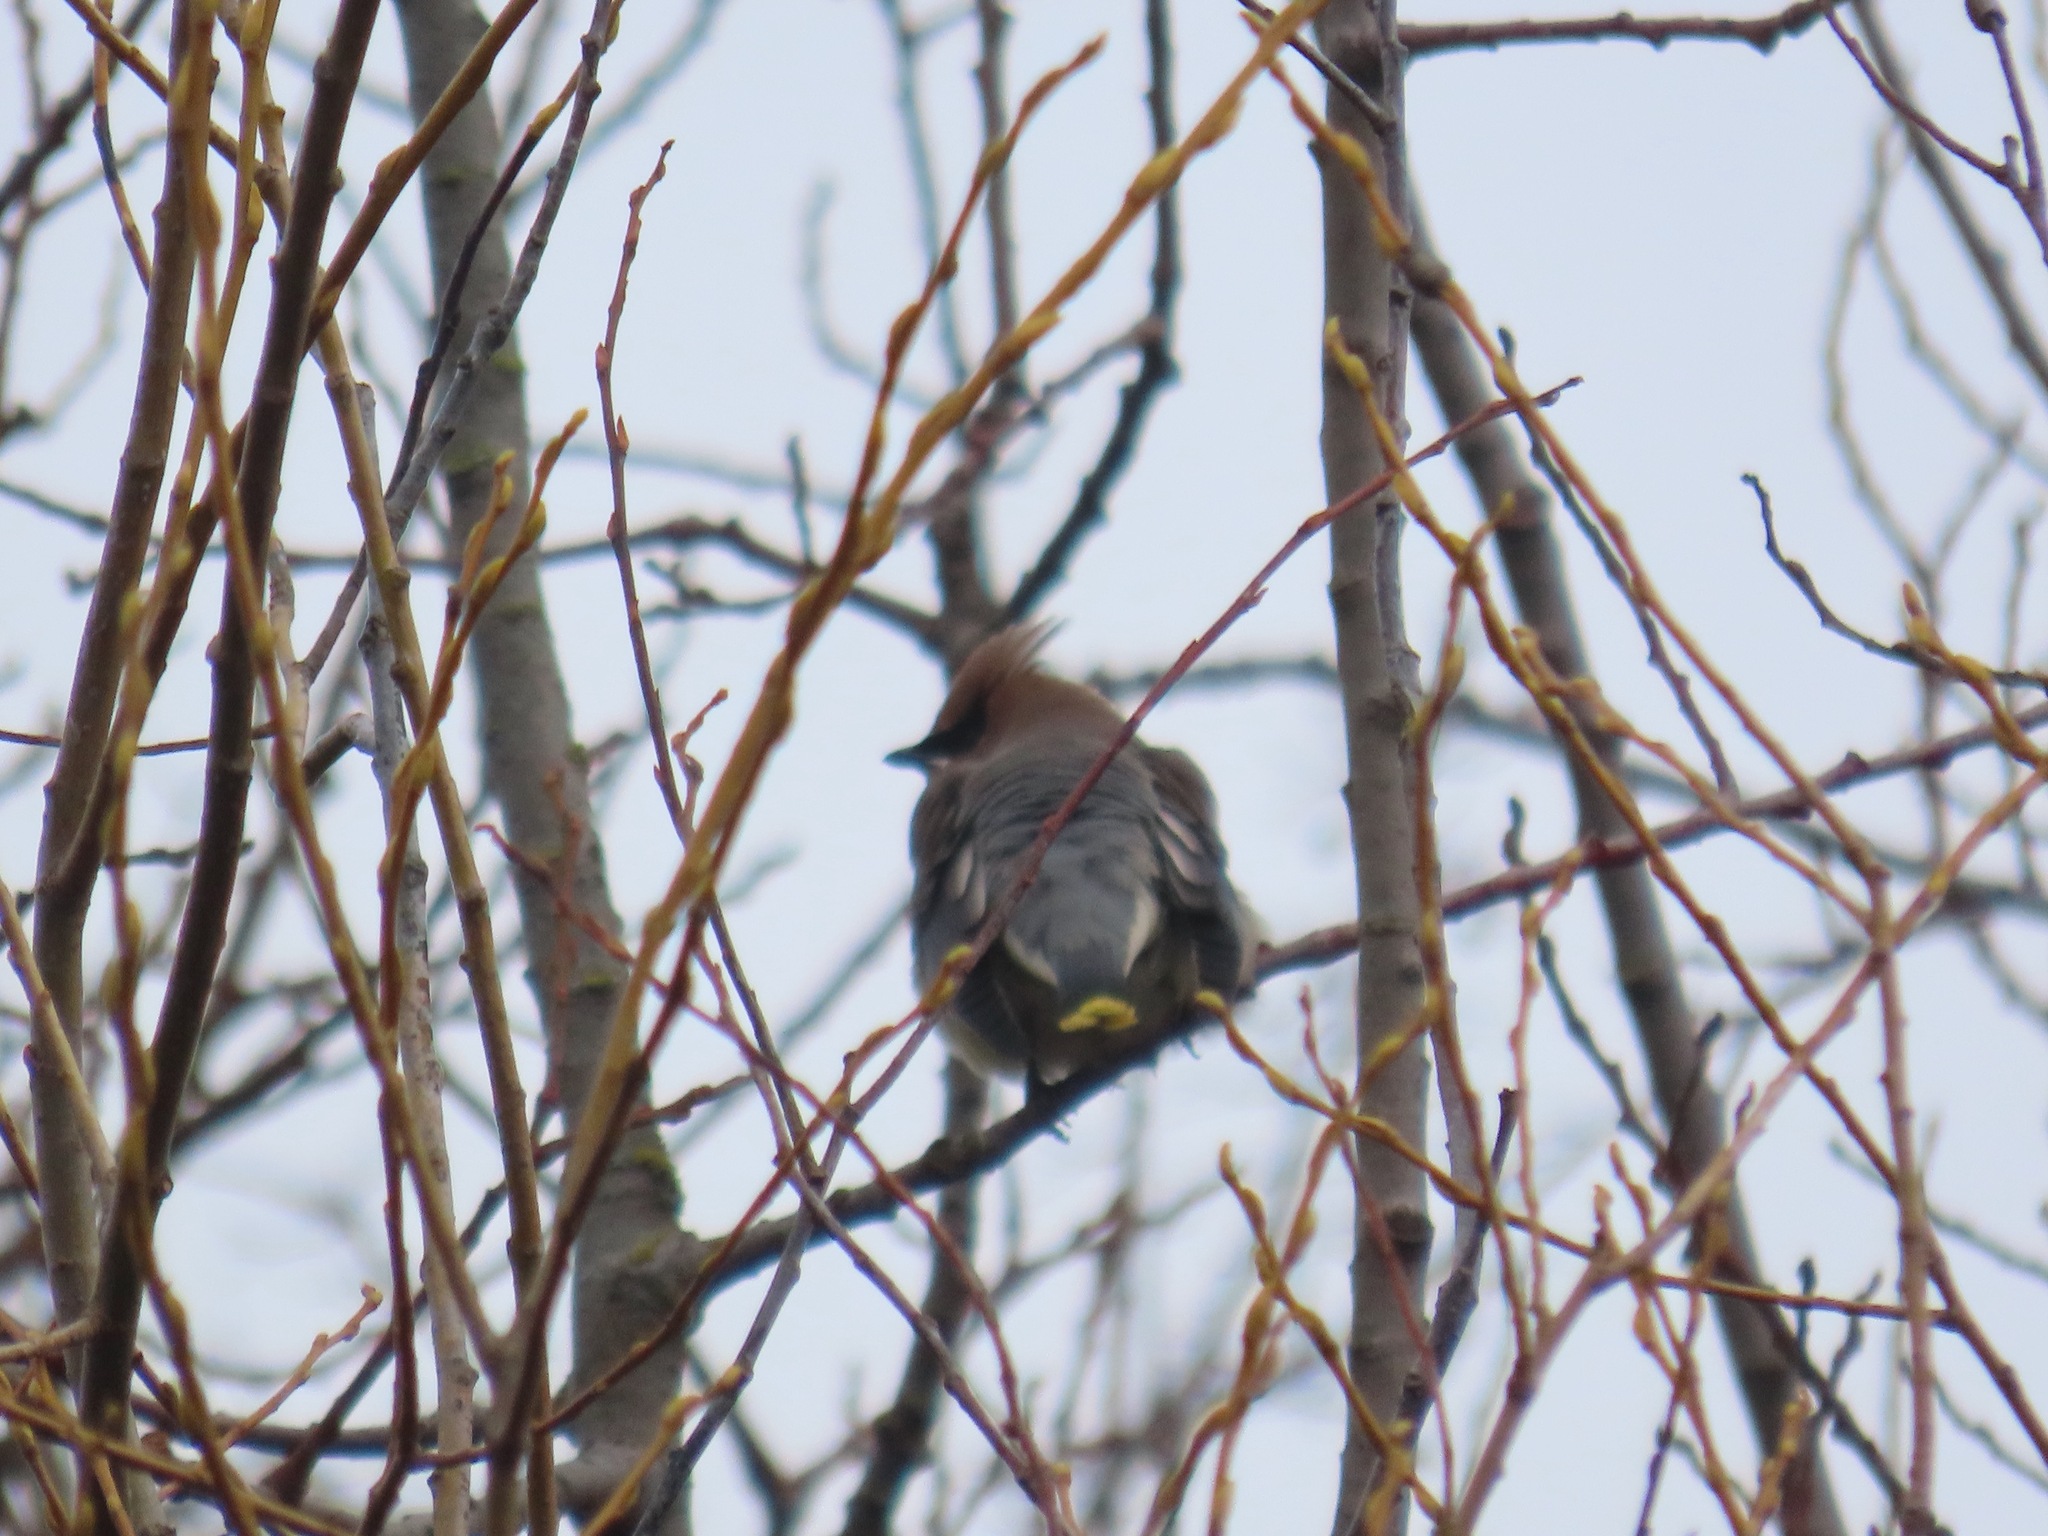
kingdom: Animalia
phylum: Chordata
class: Aves
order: Passeriformes
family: Bombycillidae
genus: Bombycilla
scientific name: Bombycilla cedrorum
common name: Cedar waxwing
